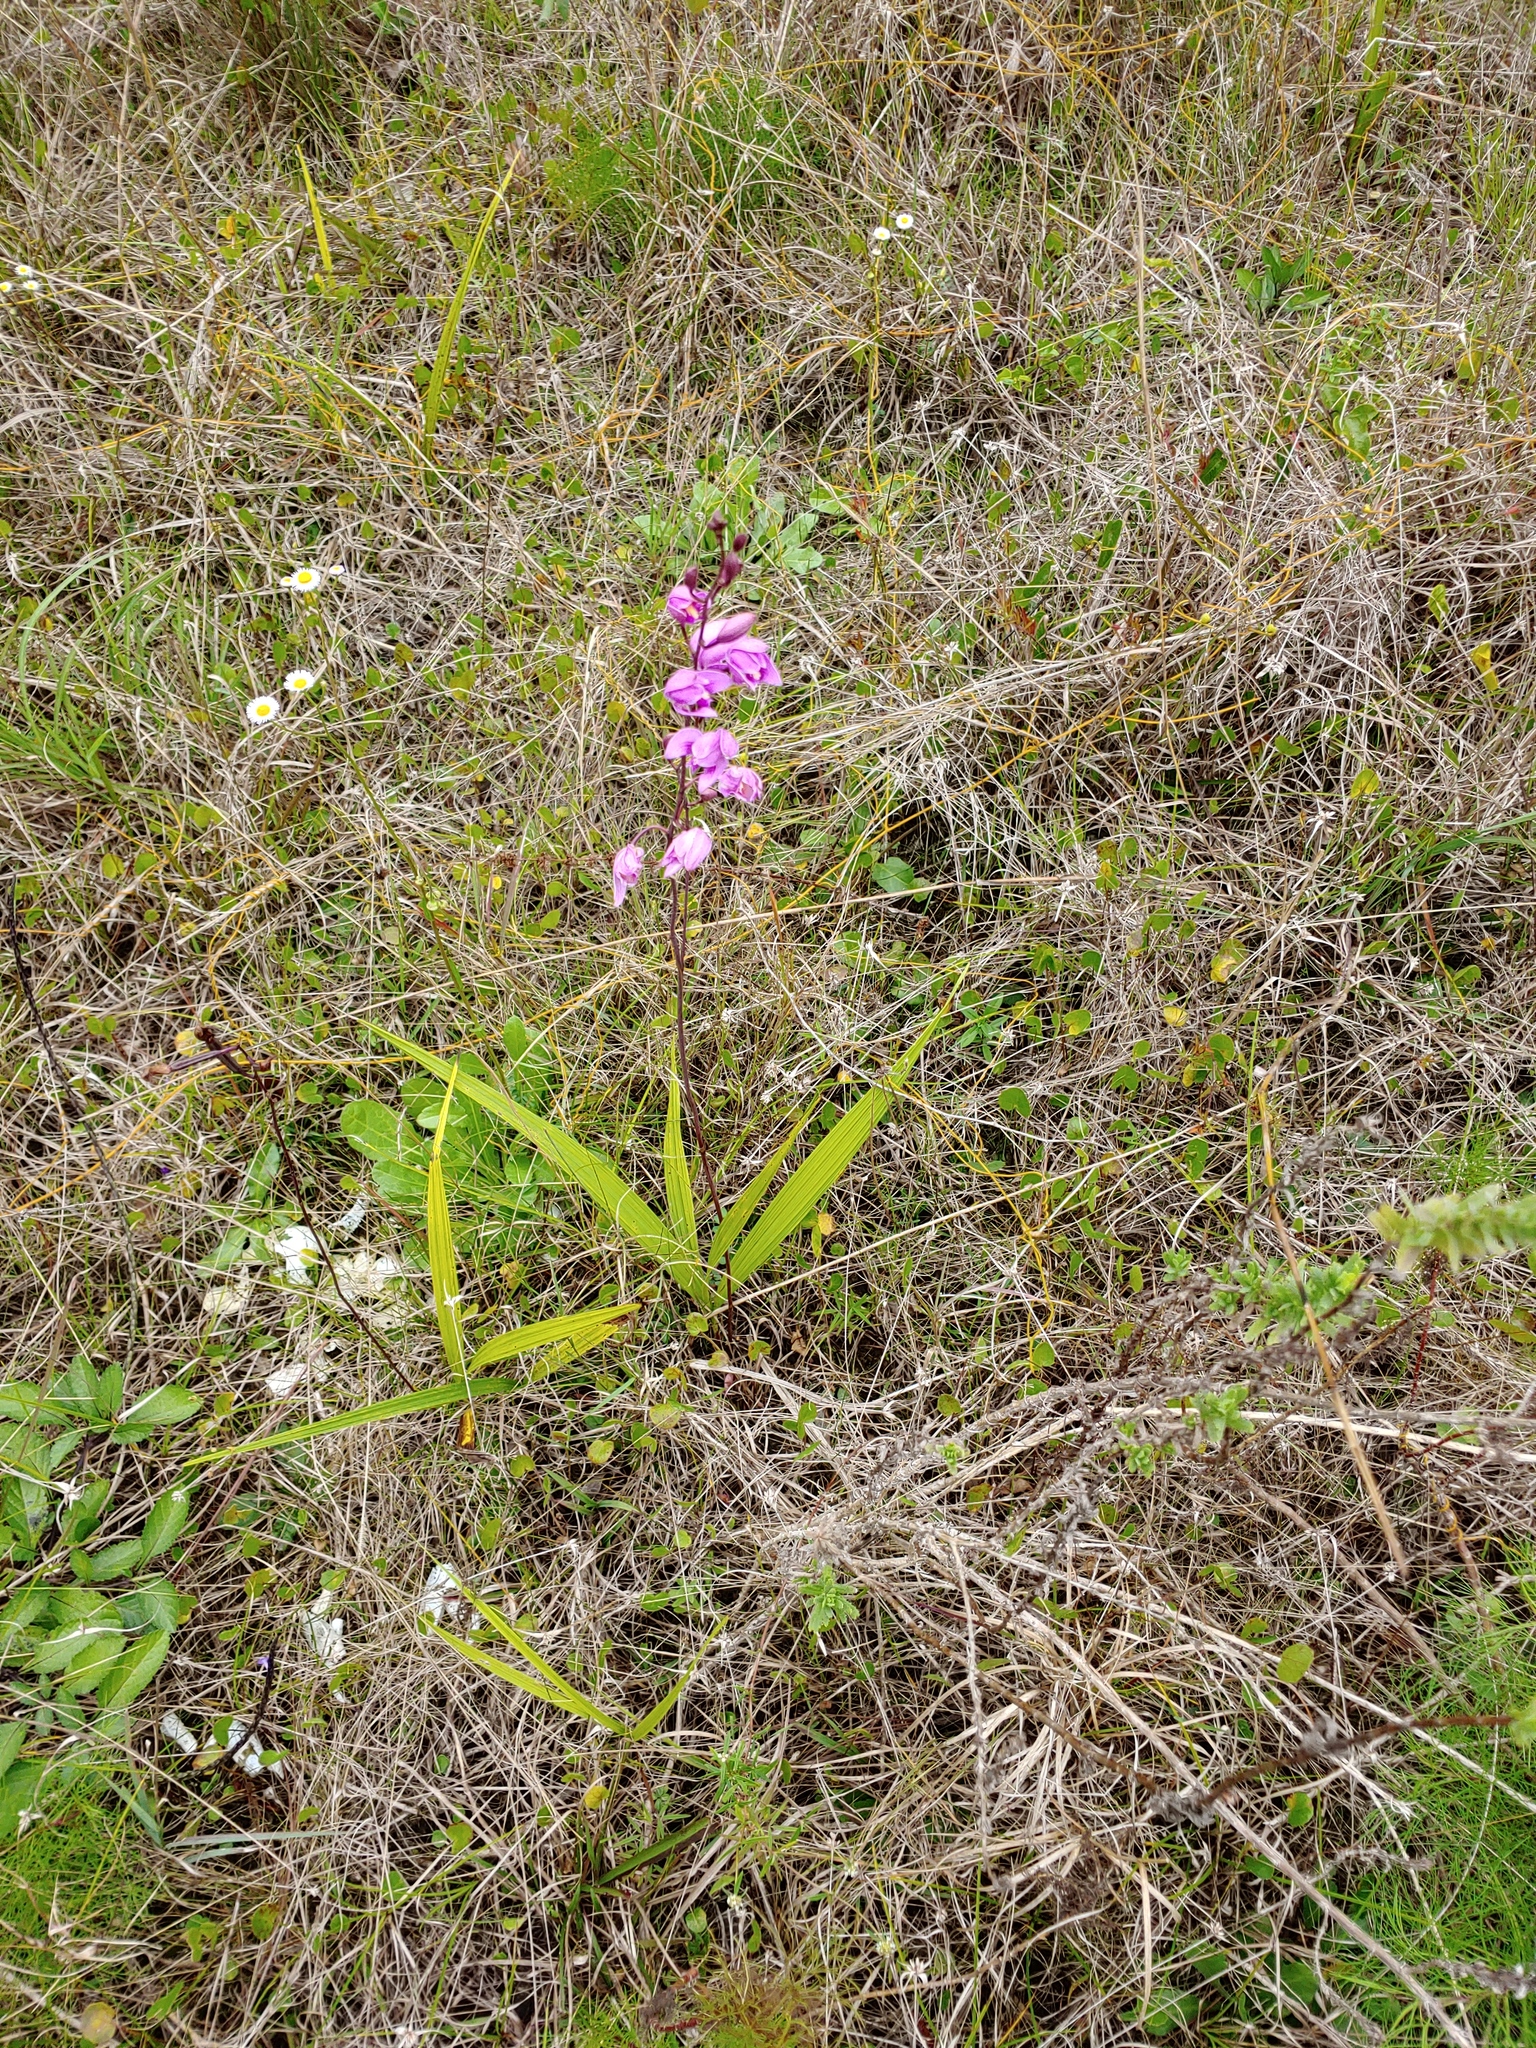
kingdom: Plantae
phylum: Tracheophyta
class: Liliopsida
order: Asparagales
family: Orchidaceae
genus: Bletia
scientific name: Bletia purpurea
